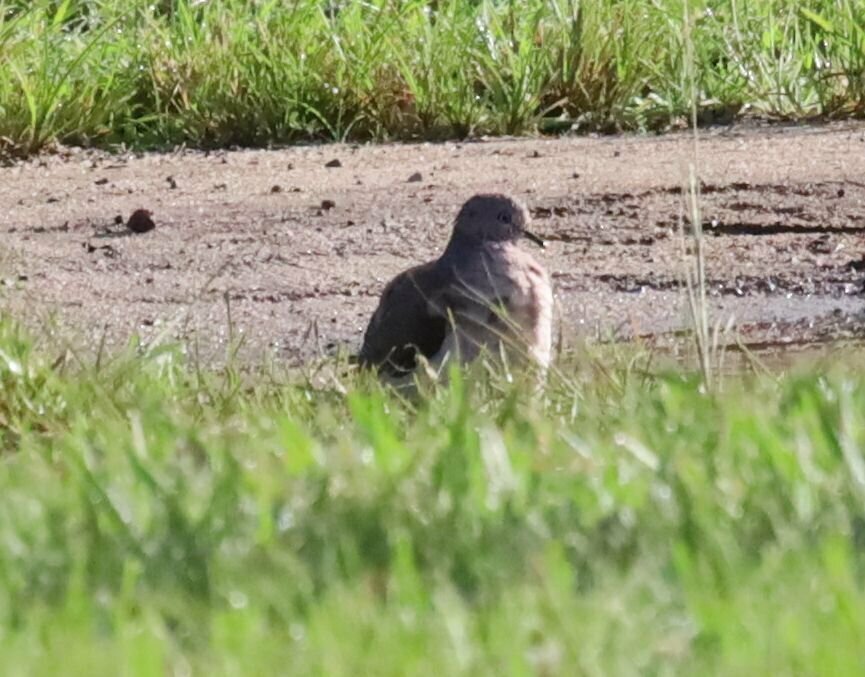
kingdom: Animalia
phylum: Chordata
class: Aves
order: Columbiformes
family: Columbidae
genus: Leptotila
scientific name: Leptotila verreauxi
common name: White-tipped dove
